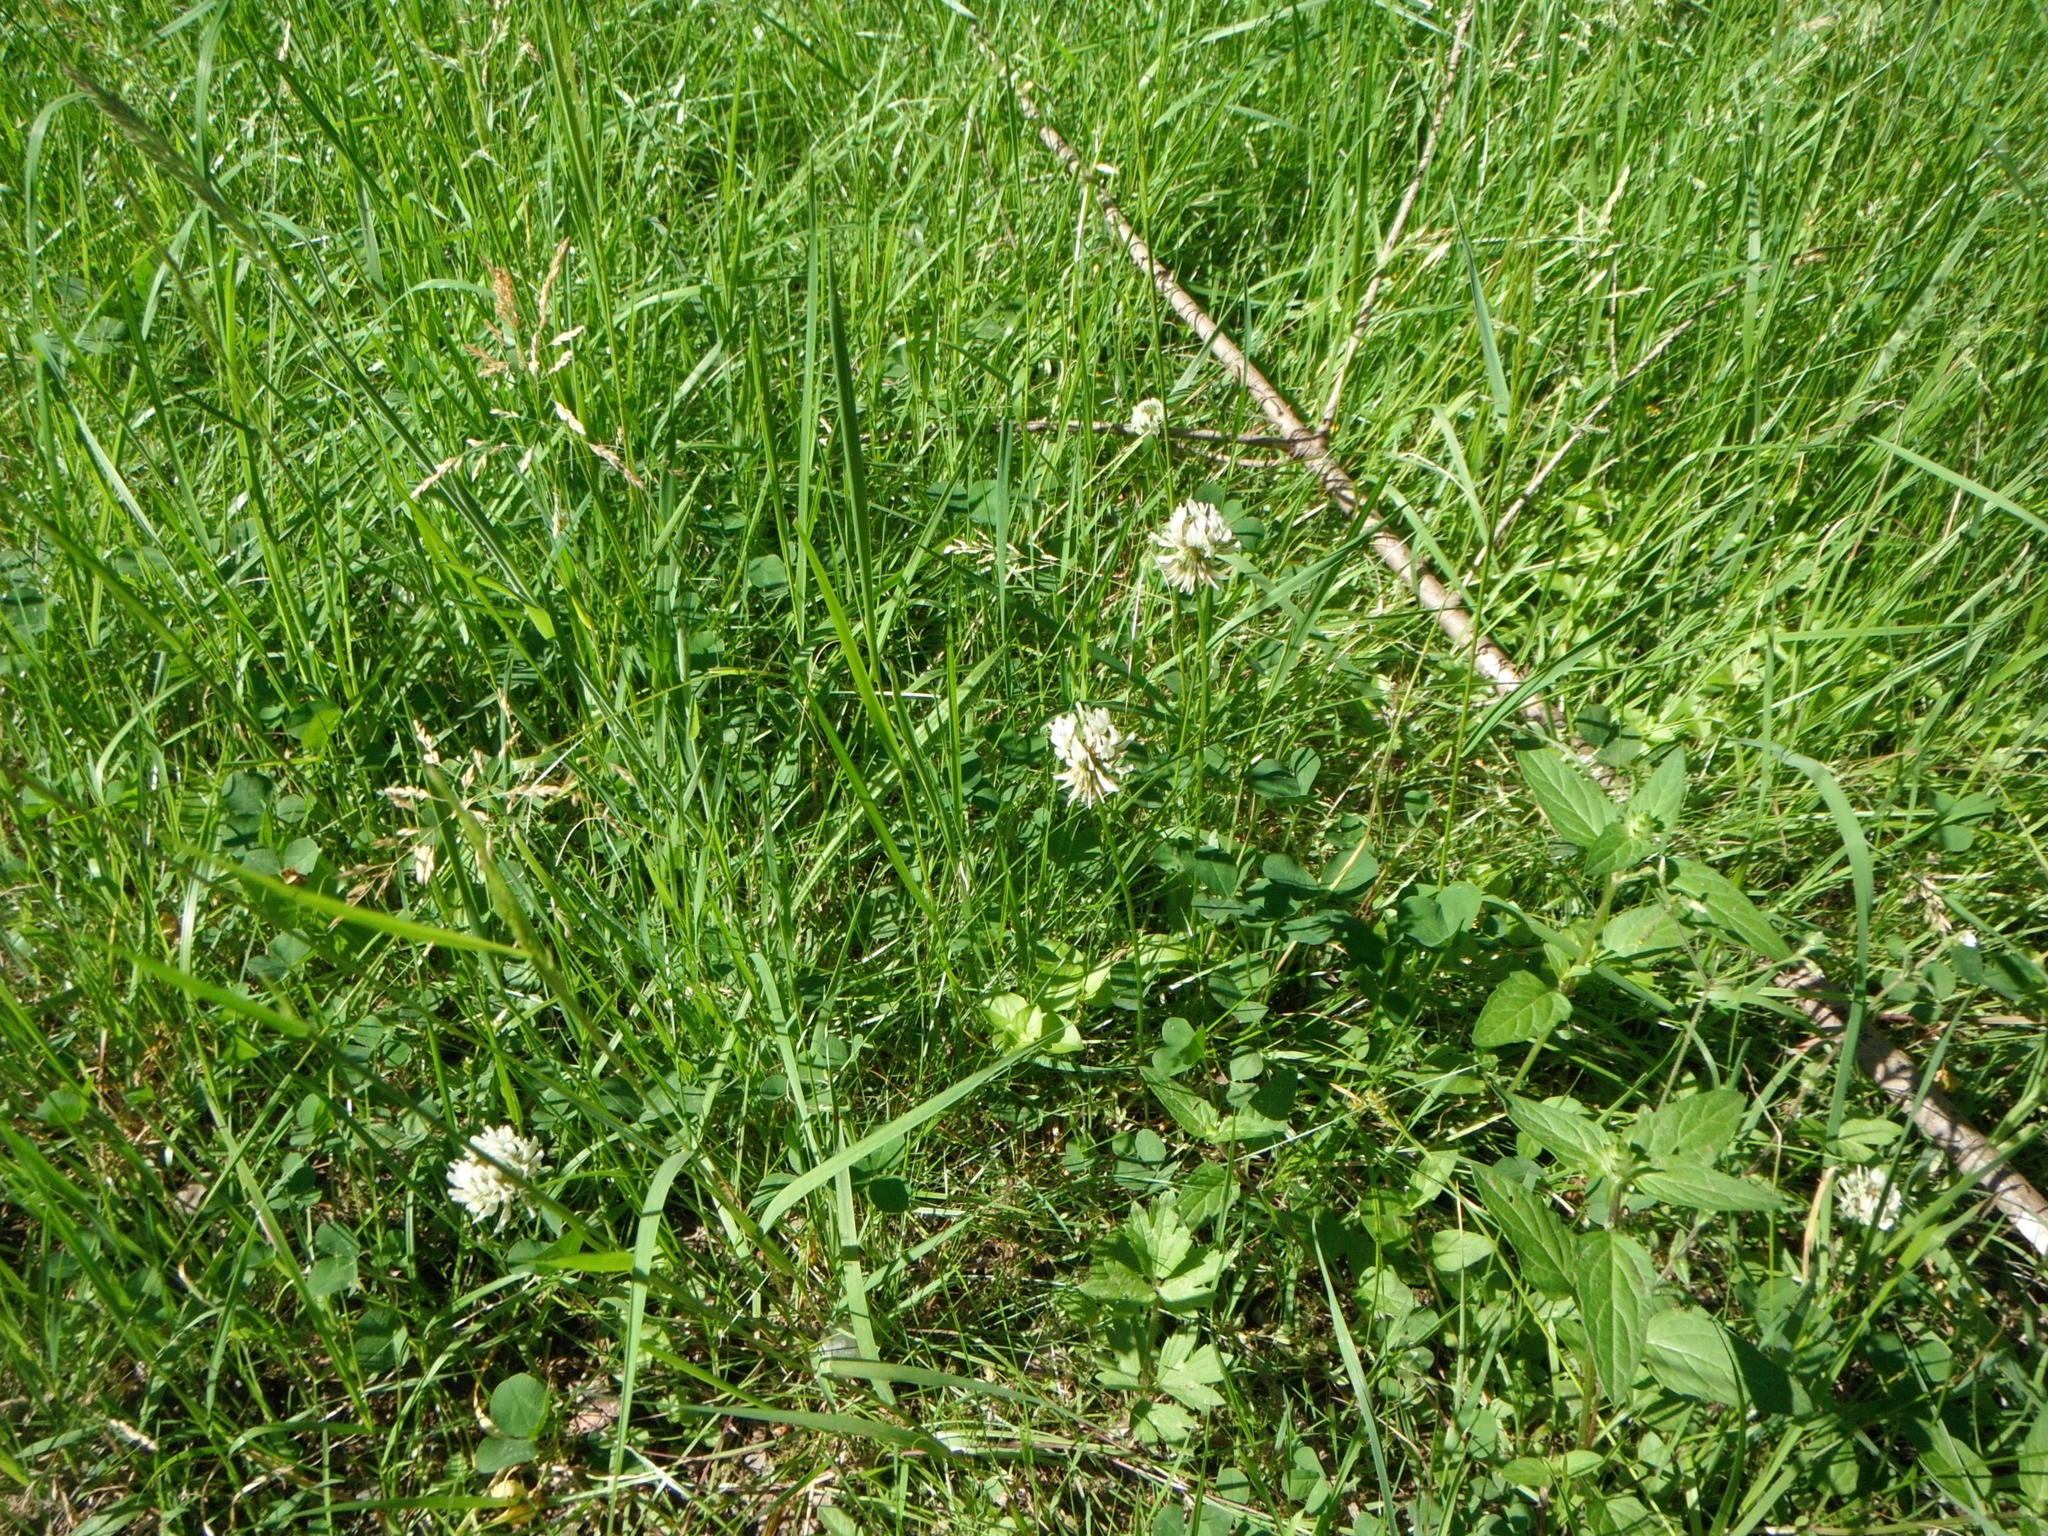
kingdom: Plantae
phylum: Tracheophyta
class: Magnoliopsida
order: Fabales
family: Fabaceae
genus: Trifolium
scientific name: Trifolium repens
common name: White clover
